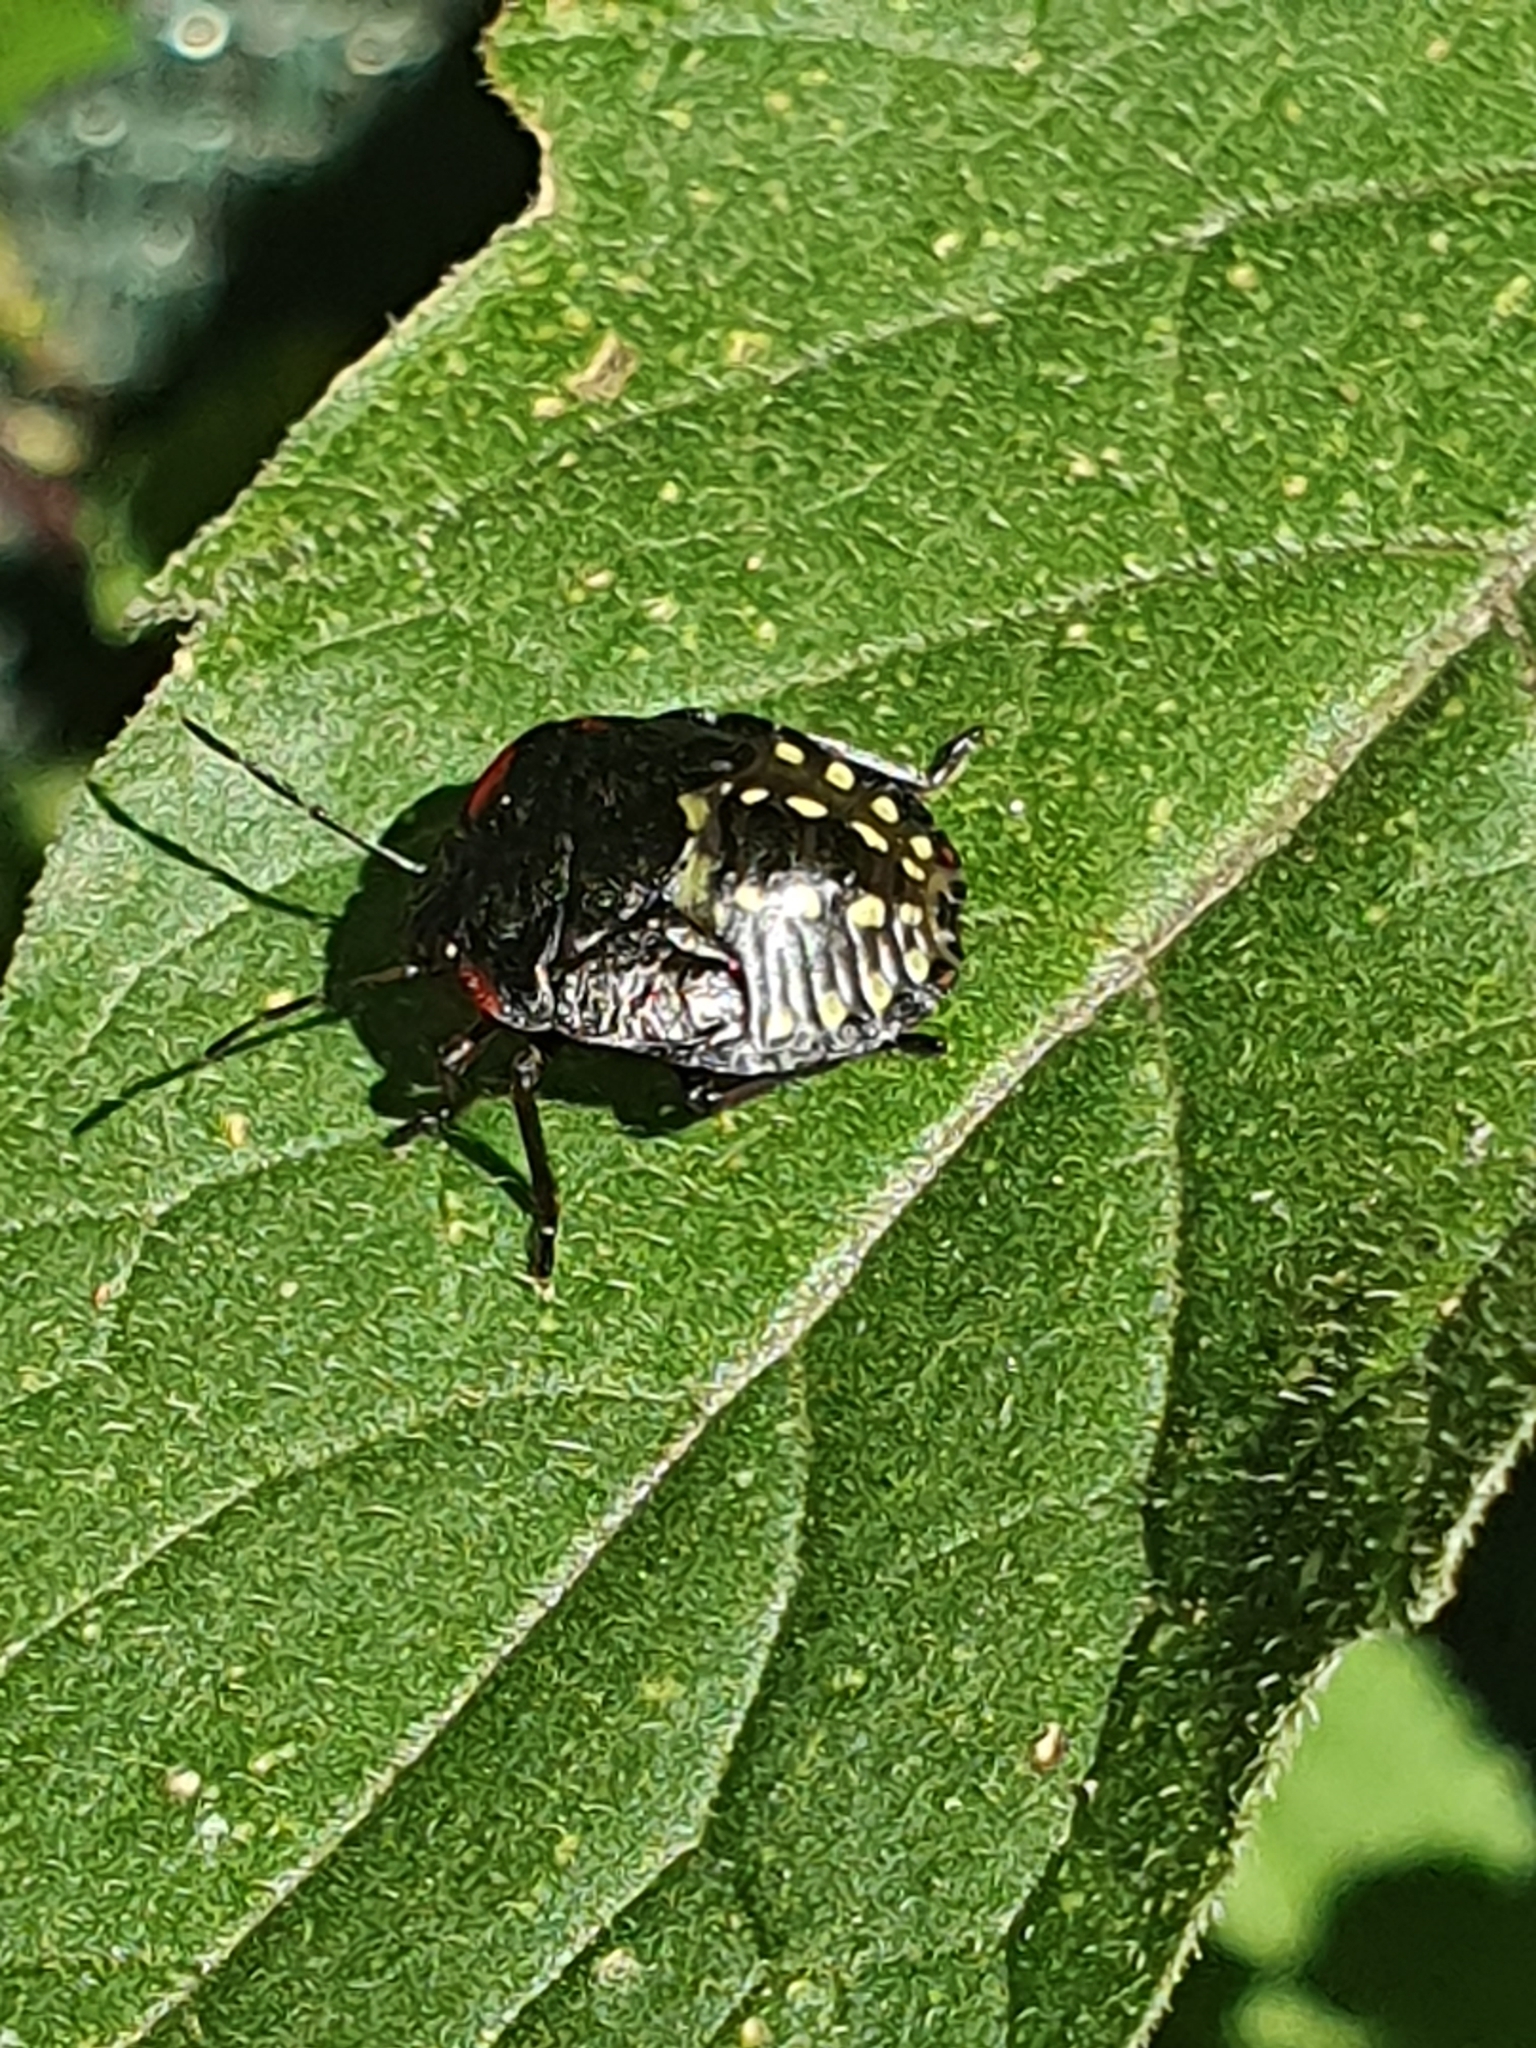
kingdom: Animalia
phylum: Arthropoda
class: Insecta
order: Hemiptera
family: Pentatomidae
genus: Nezara
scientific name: Nezara viridula
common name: Southern green stink bug
